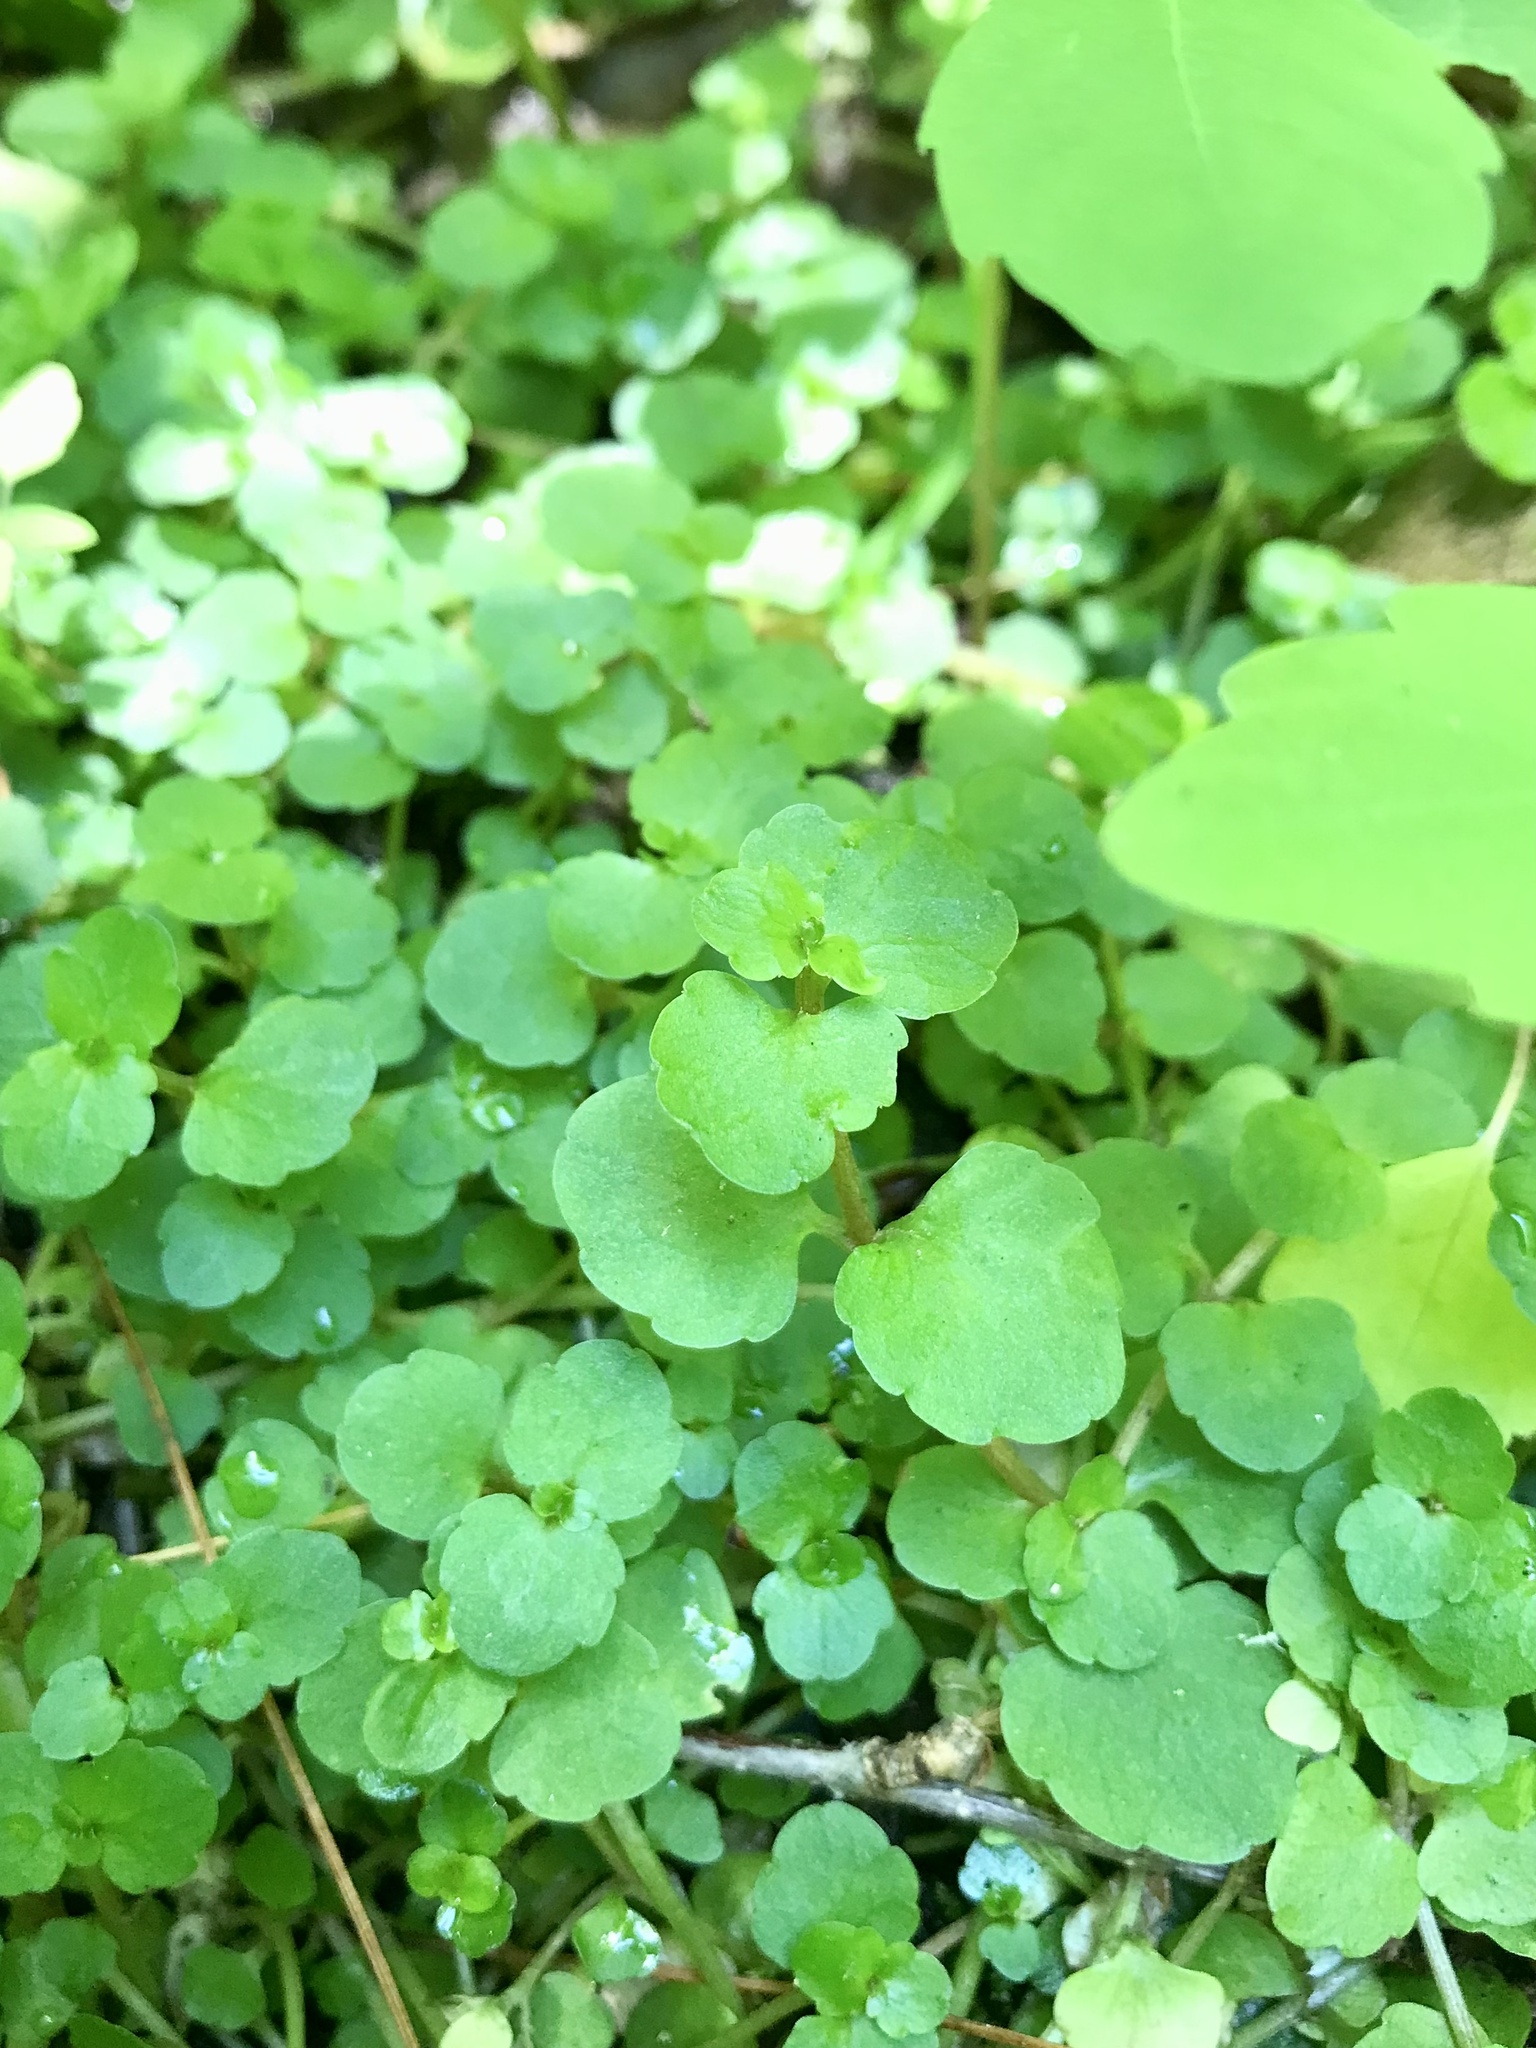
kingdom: Plantae
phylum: Tracheophyta
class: Magnoliopsida
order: Saxifragales
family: Saxifragaceae
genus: Chrysosplenium
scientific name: Chrysosplenium americanum
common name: American golden-saxifrage
